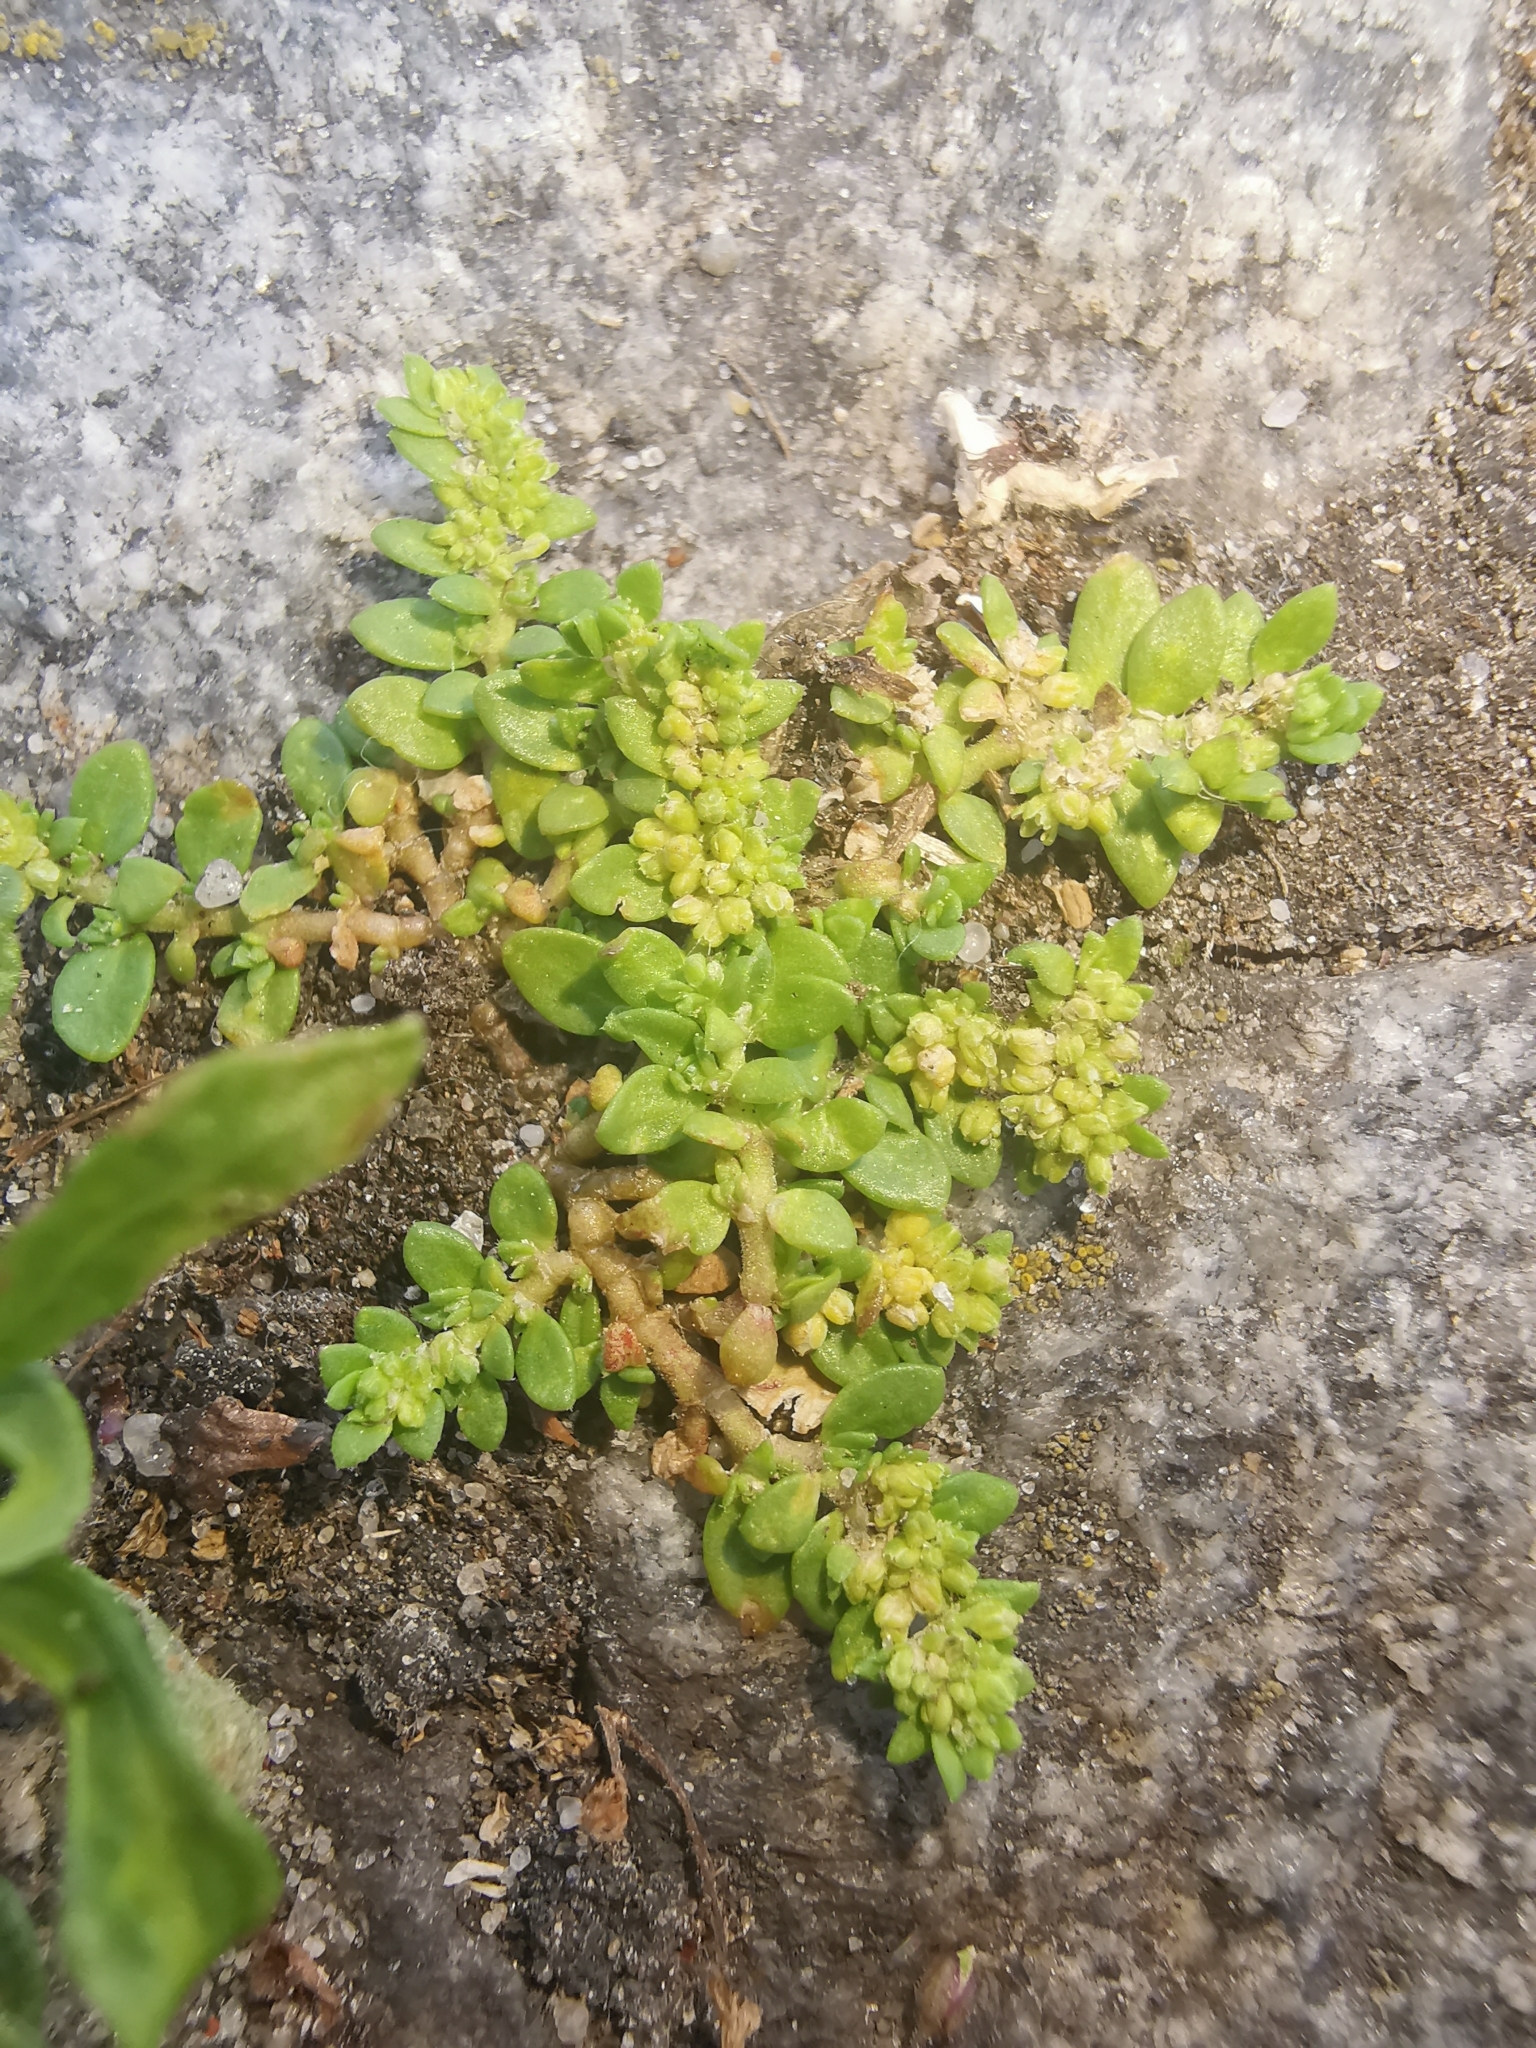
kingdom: Plantae
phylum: Tracheophyta
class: Magnoliopsida
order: Caryophyllales
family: Caryophyllaceae
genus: Herniaria
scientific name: Herniaria glabra
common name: Smooth rupturewort
